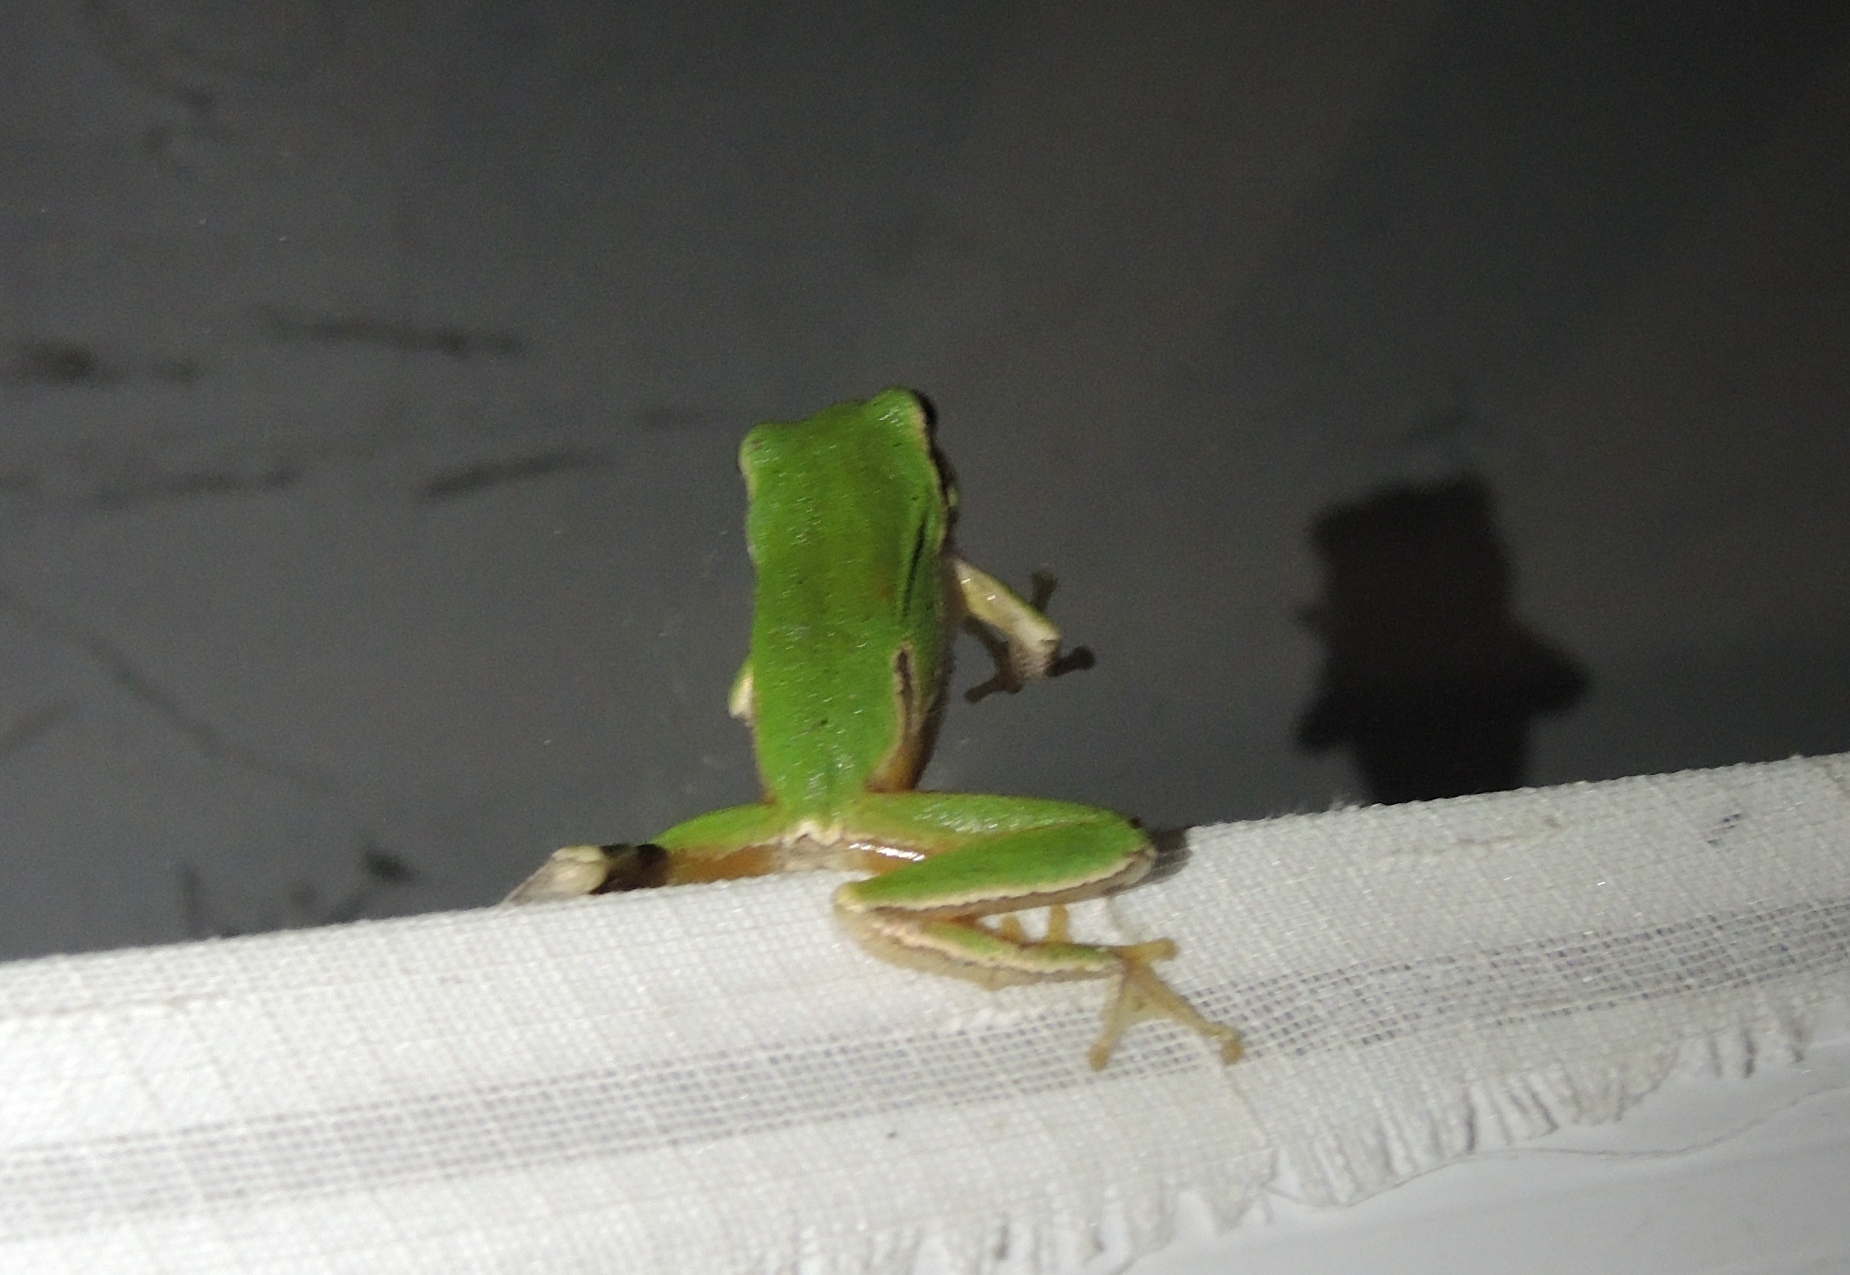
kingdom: Animalia
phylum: Chordata
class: Amphibia
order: Anura
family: Hylidae
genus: Hyla
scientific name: Hyla orientalis
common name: Caucasian treefrog
